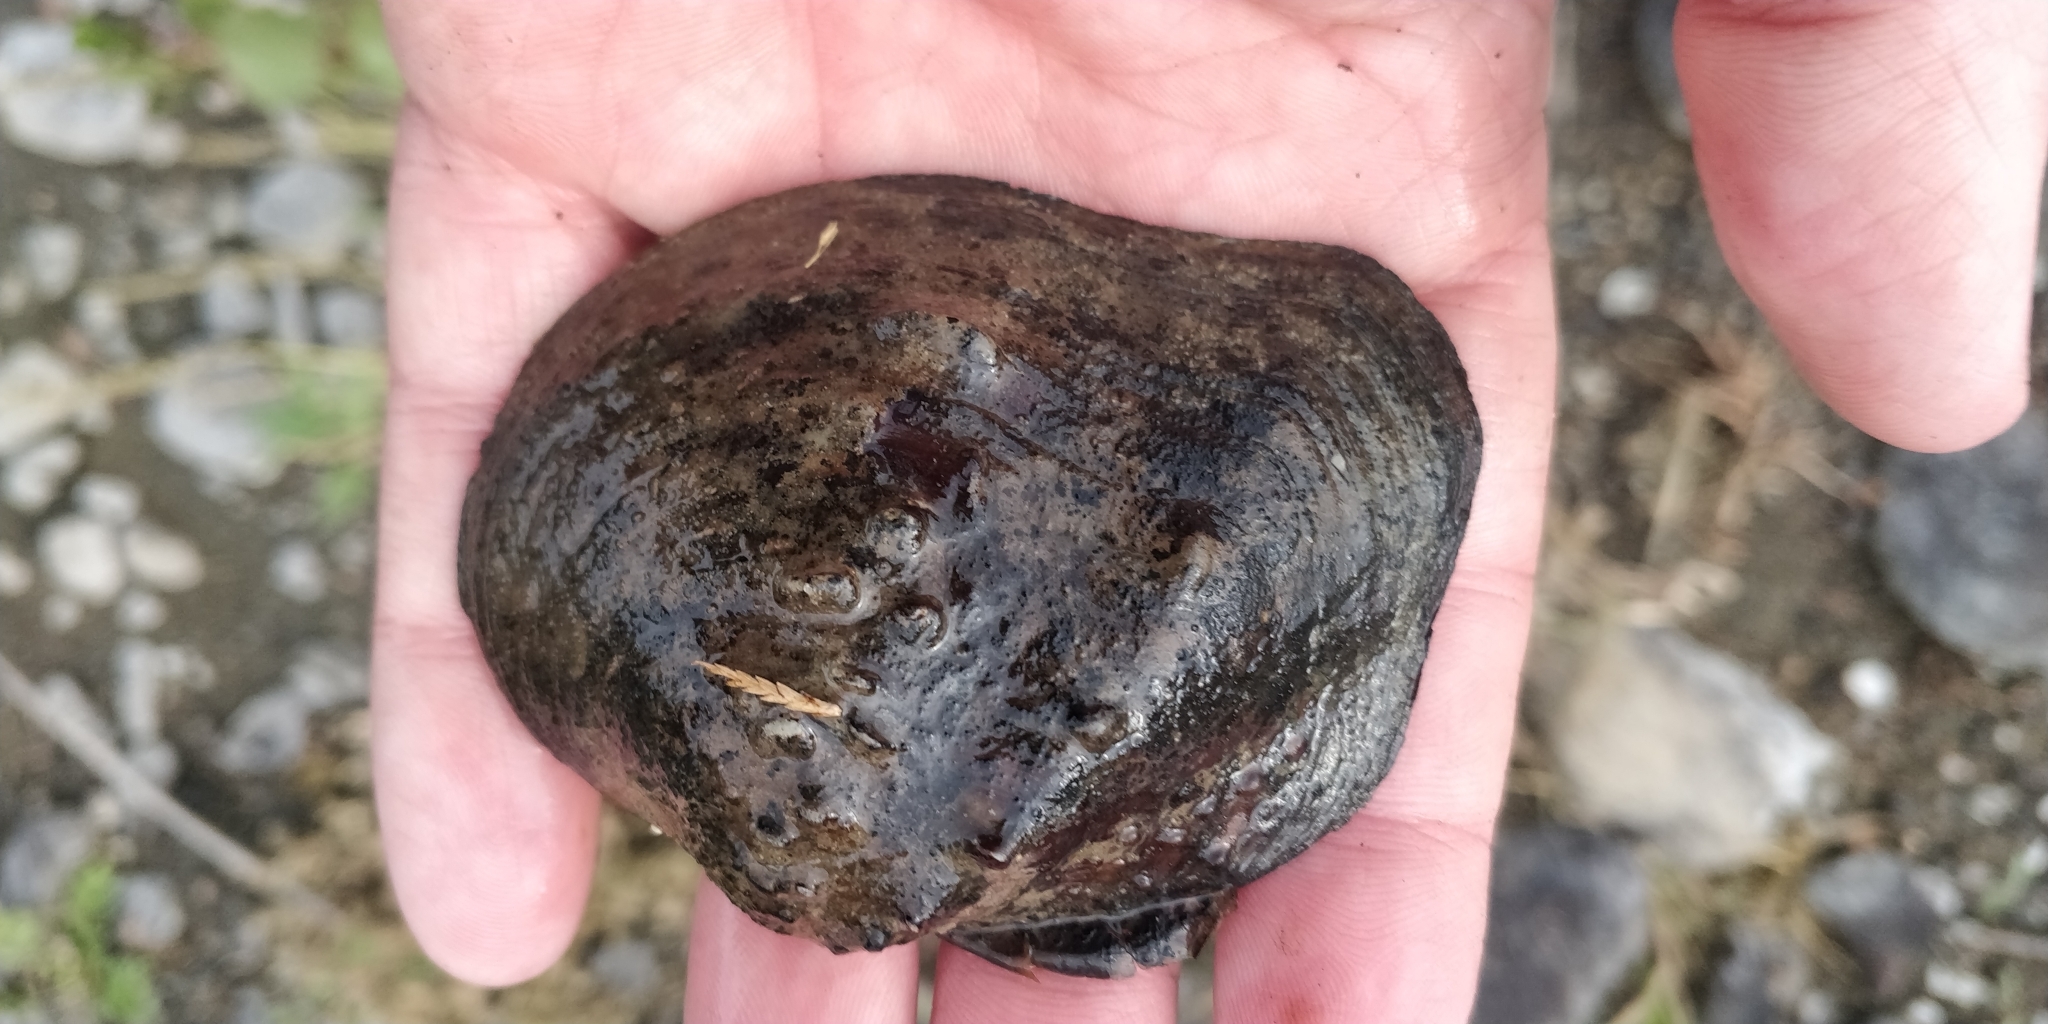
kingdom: Animalia
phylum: Mollusca
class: Bivalvia
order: Unionida
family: Unionidae
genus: Quadrula
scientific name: Quadrula quadrula
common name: Mapleleaf
